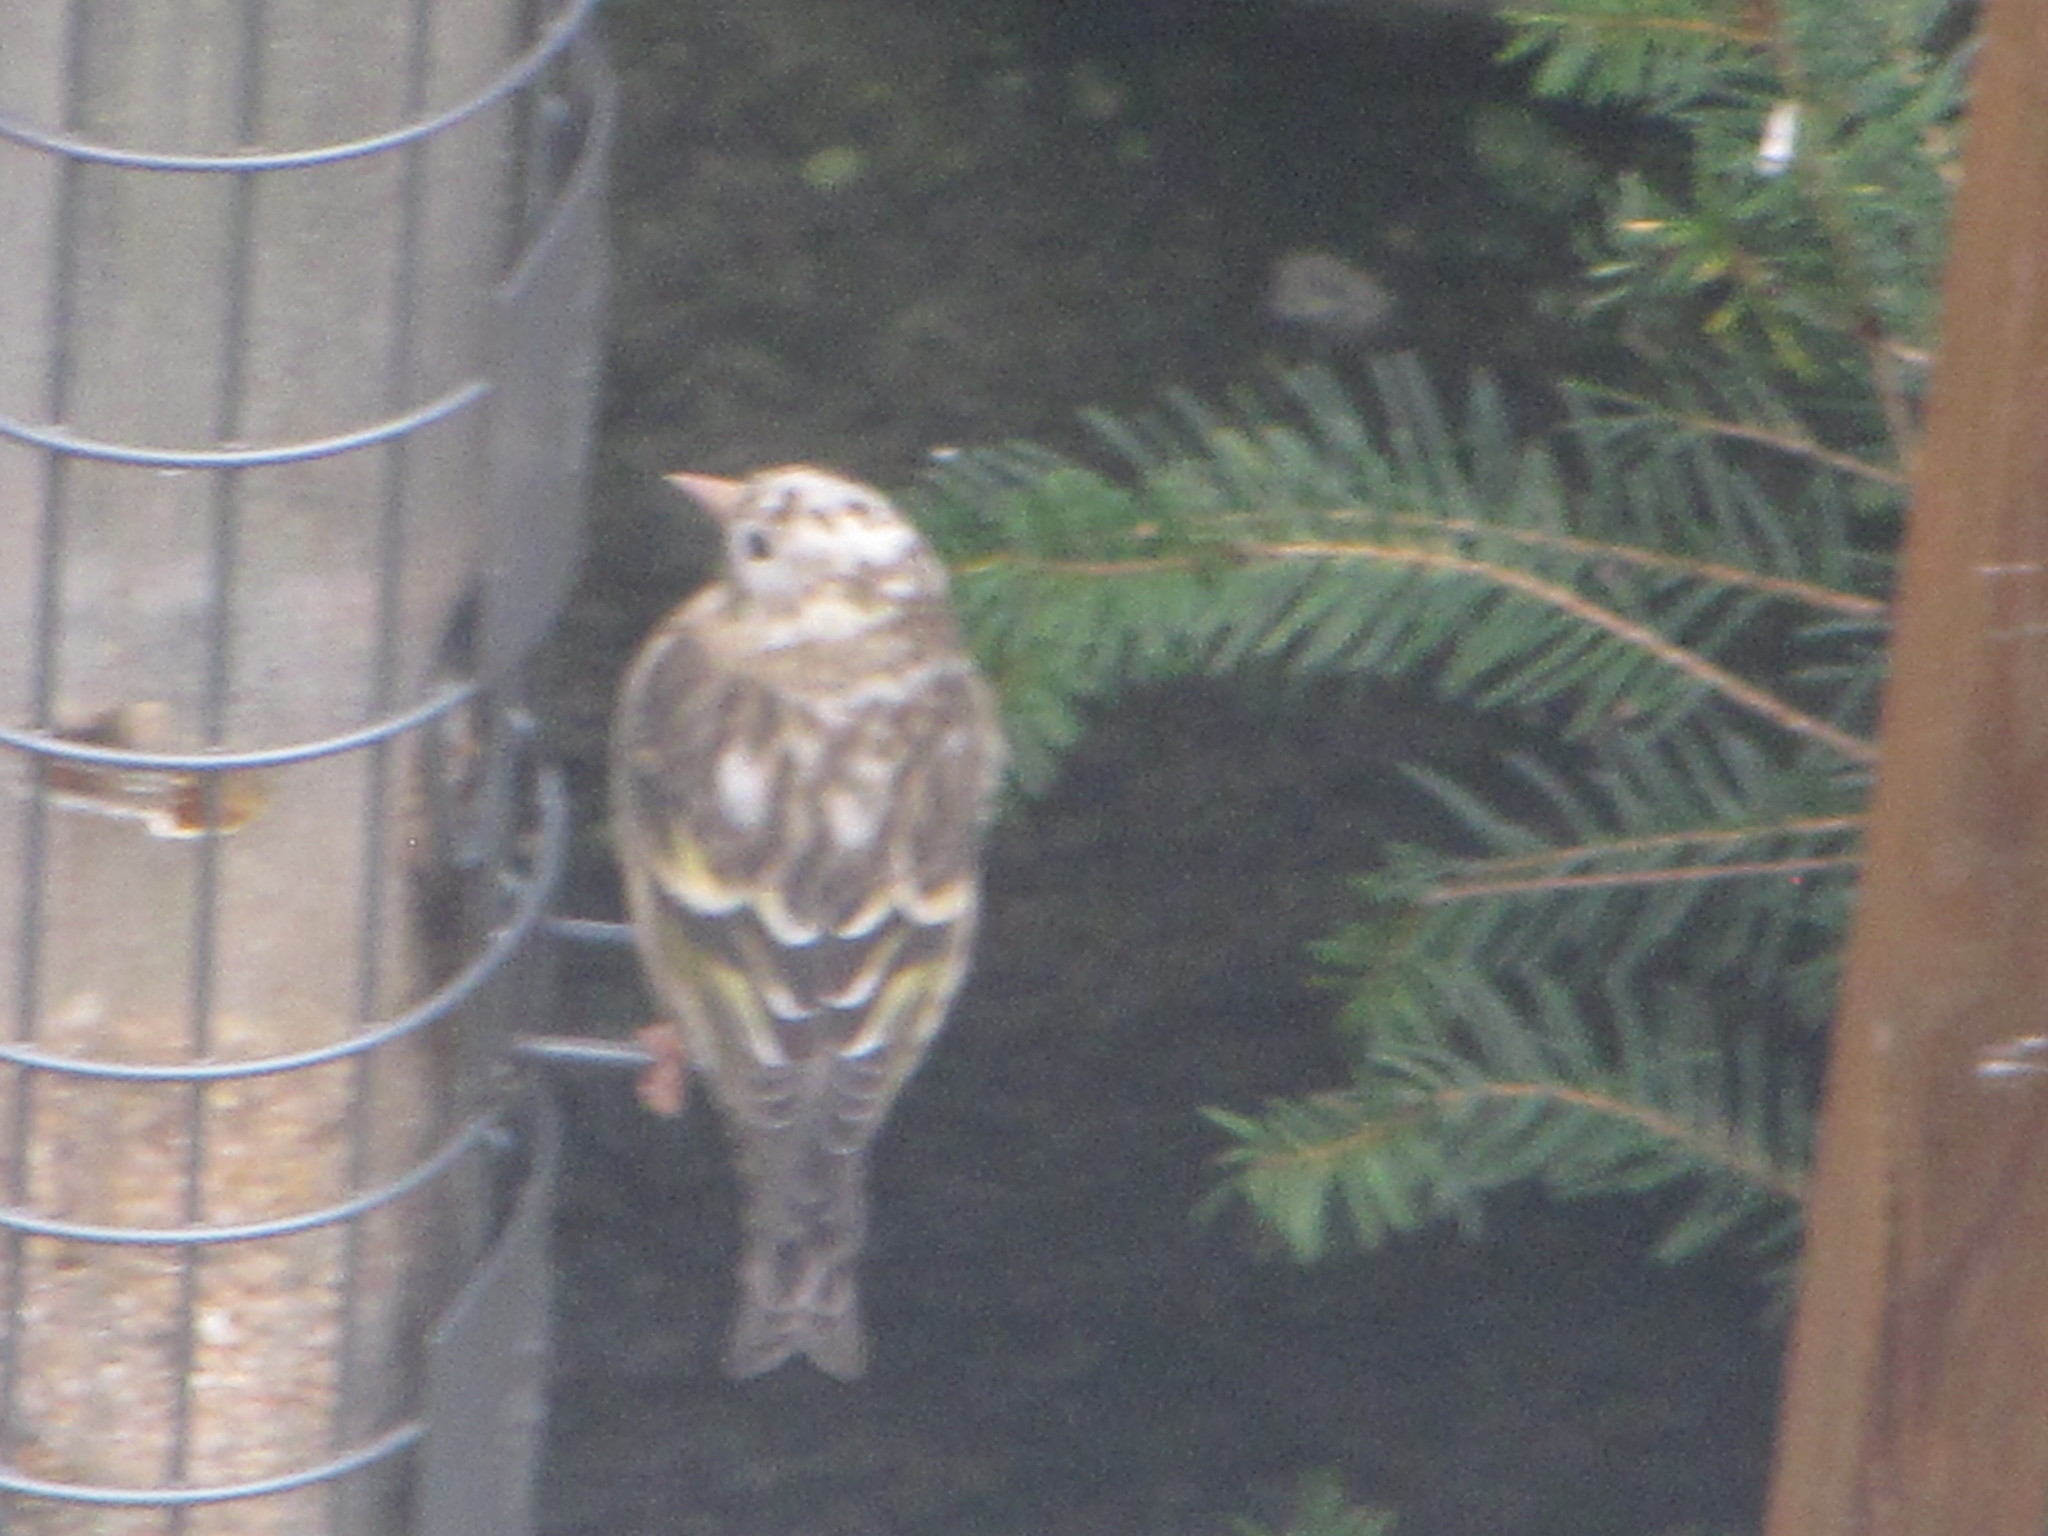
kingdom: Animalia
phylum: Chordata
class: Aves
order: Passeriformes
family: Fringillidae
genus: Spinus
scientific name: Spinus pinus
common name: Pine siskin
